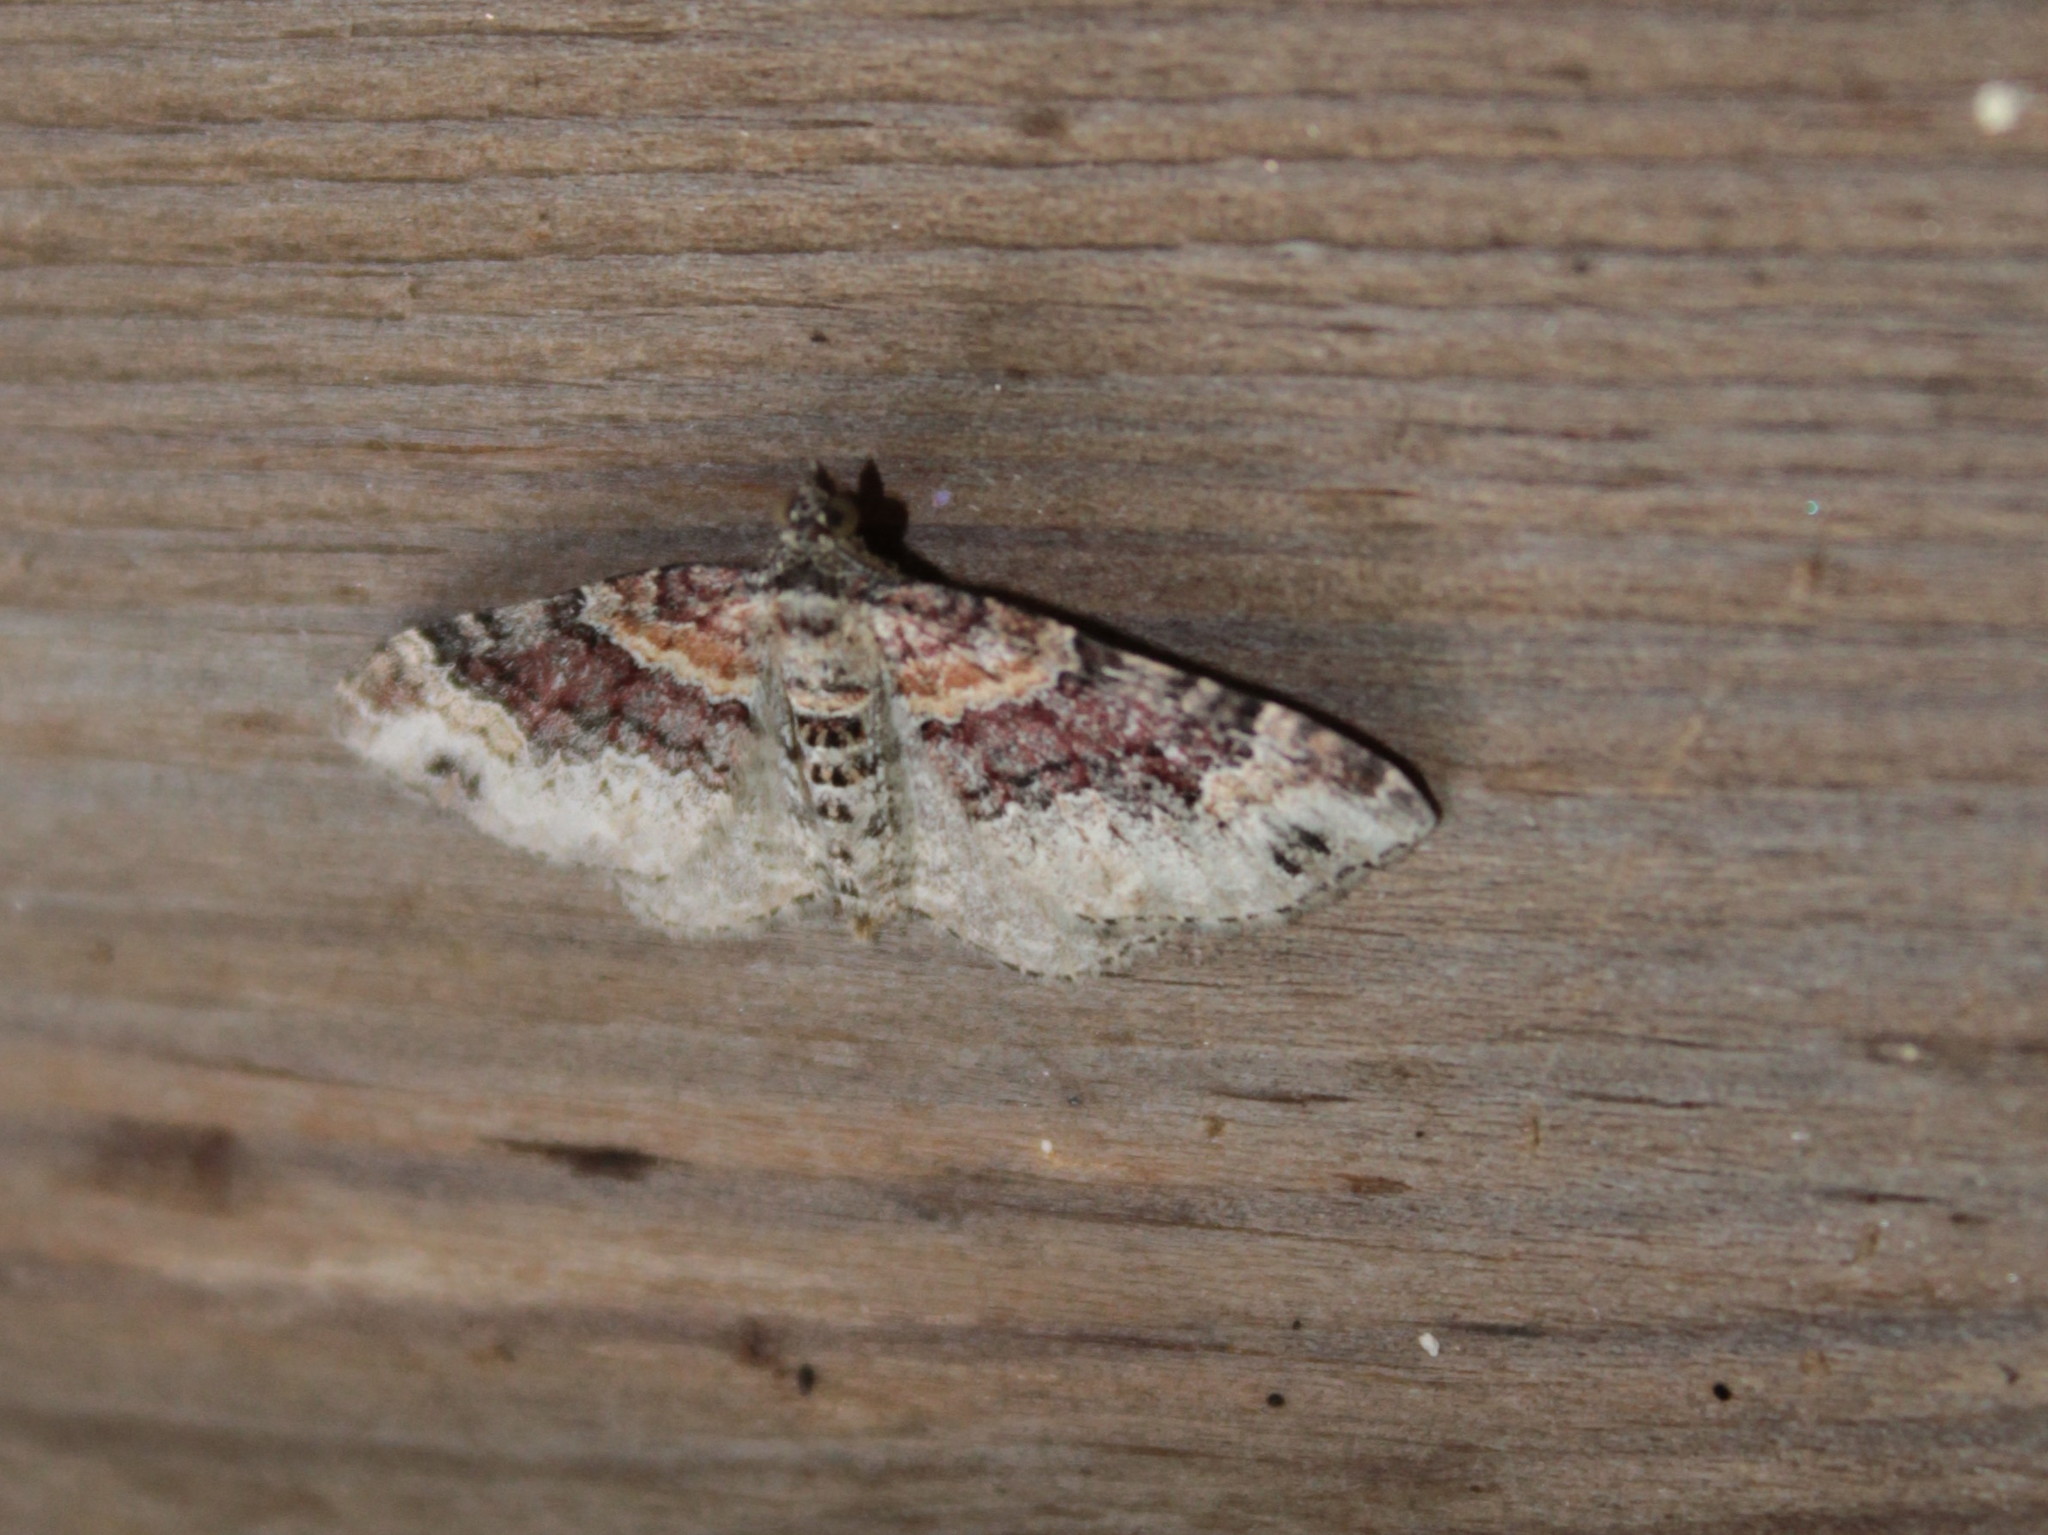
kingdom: Animalia
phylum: Arthropoda
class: Insecta
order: Lepidoptera
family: Geometridae
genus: Xanthorhoe
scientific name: Xanthorhoe ferrugata
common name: Dark-barred twin-spot carpet
